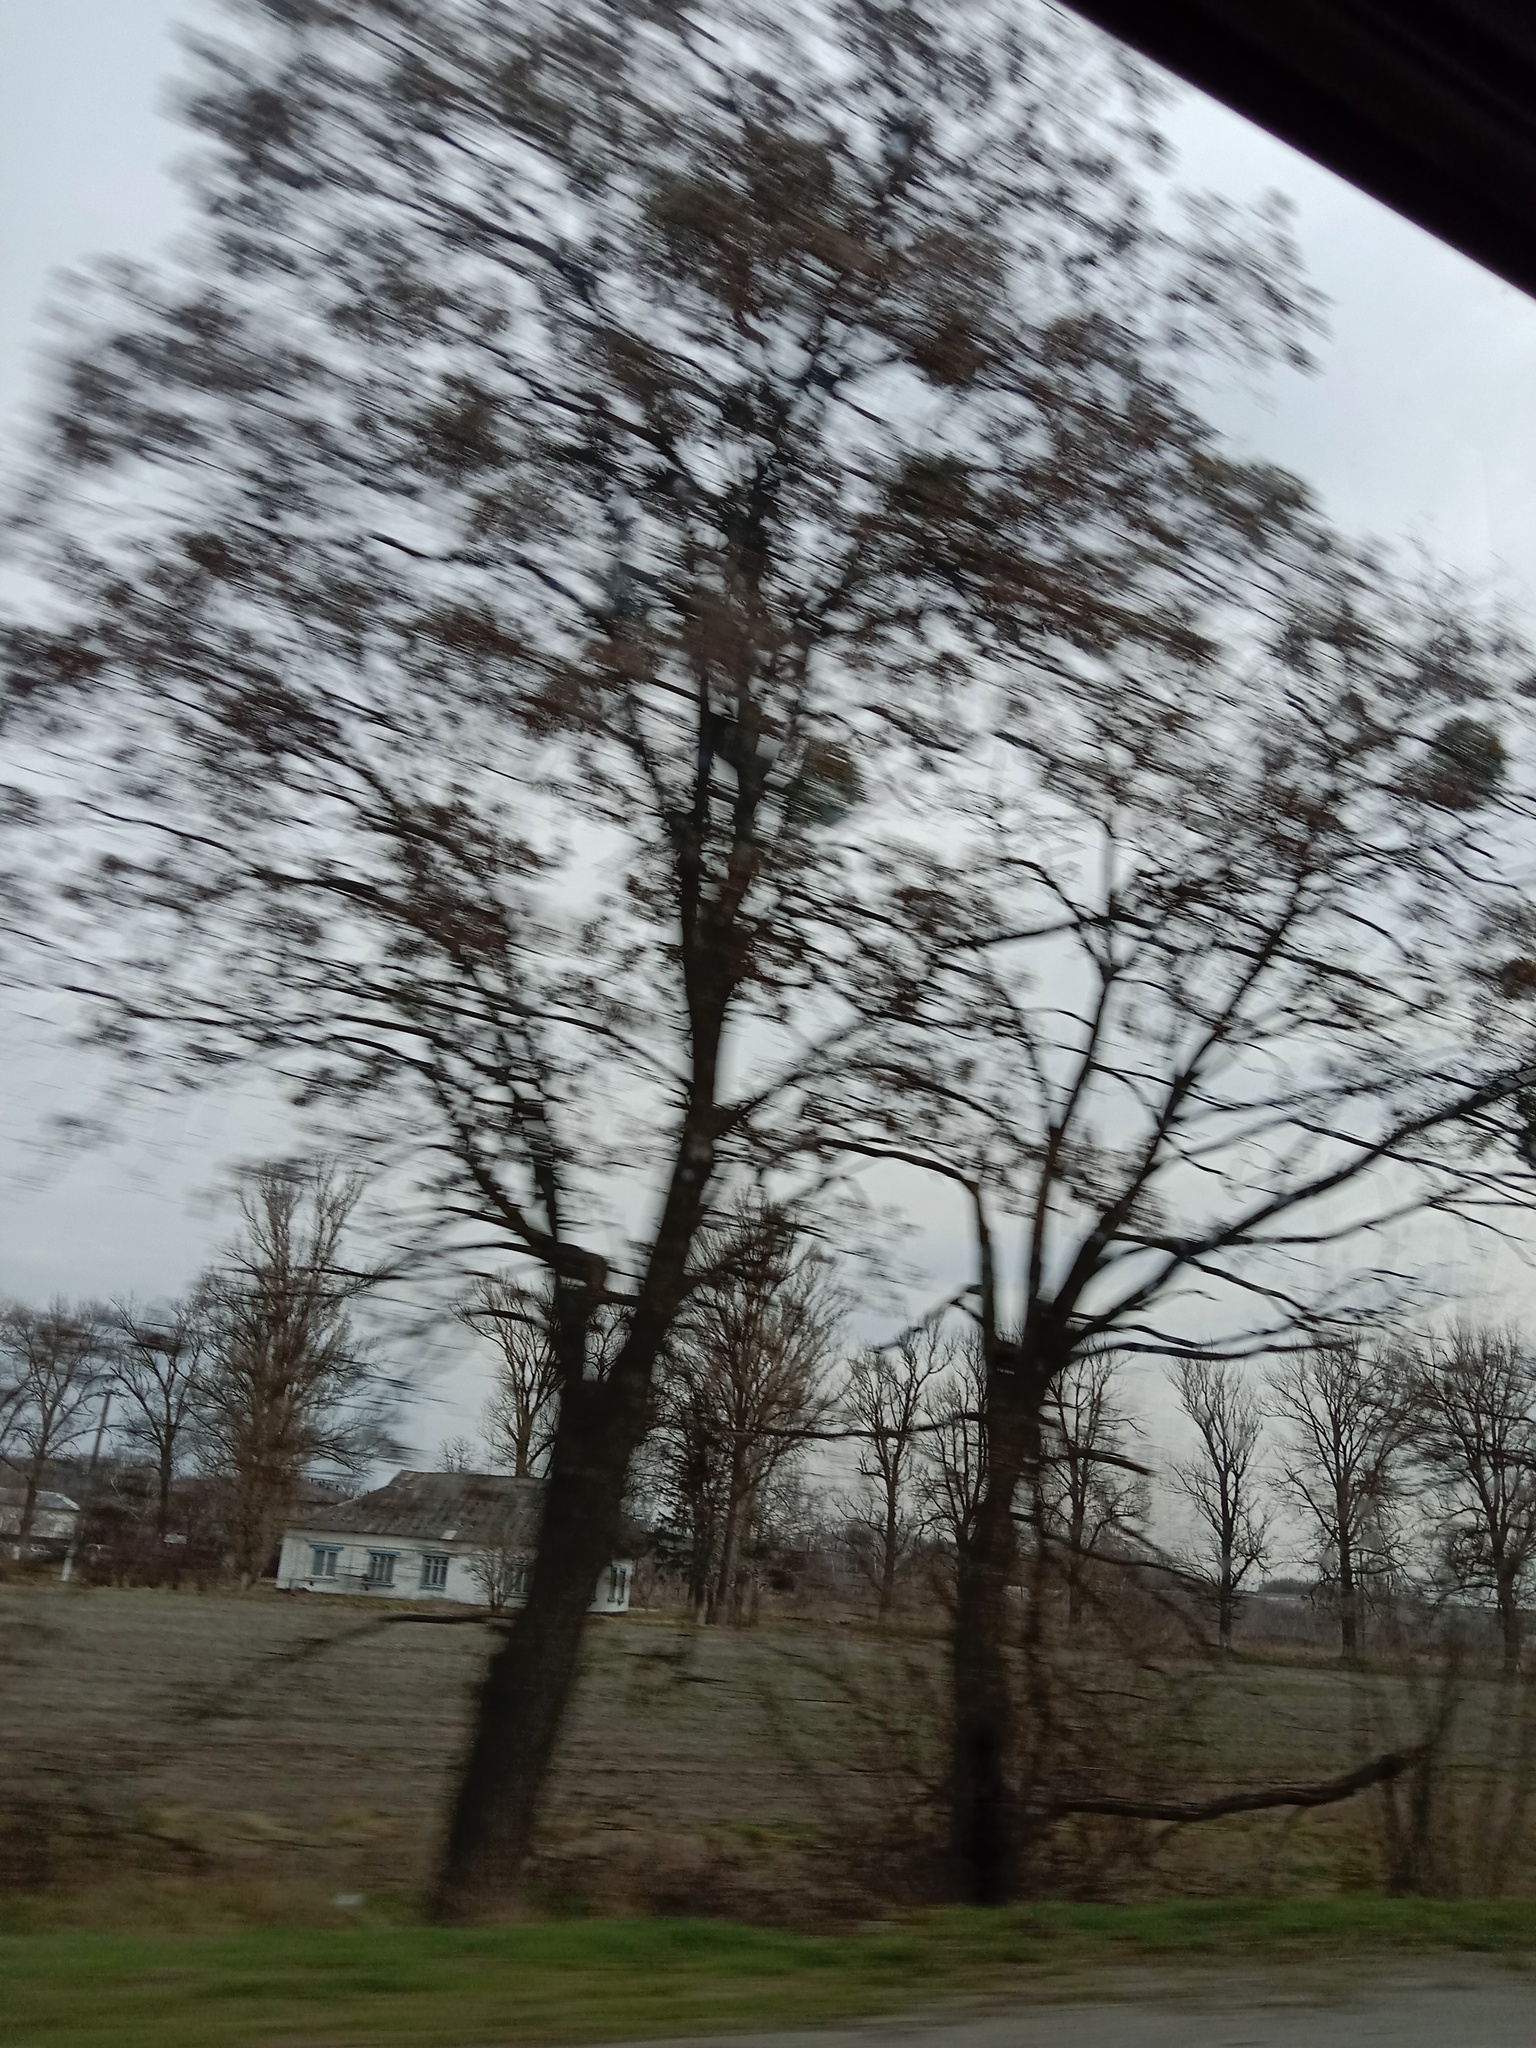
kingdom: Plantae
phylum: Tracheophyta
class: Magnoliopsida
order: Santalales
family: Viscaceae
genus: Viscum
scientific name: Viscum album
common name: Mistletoe
